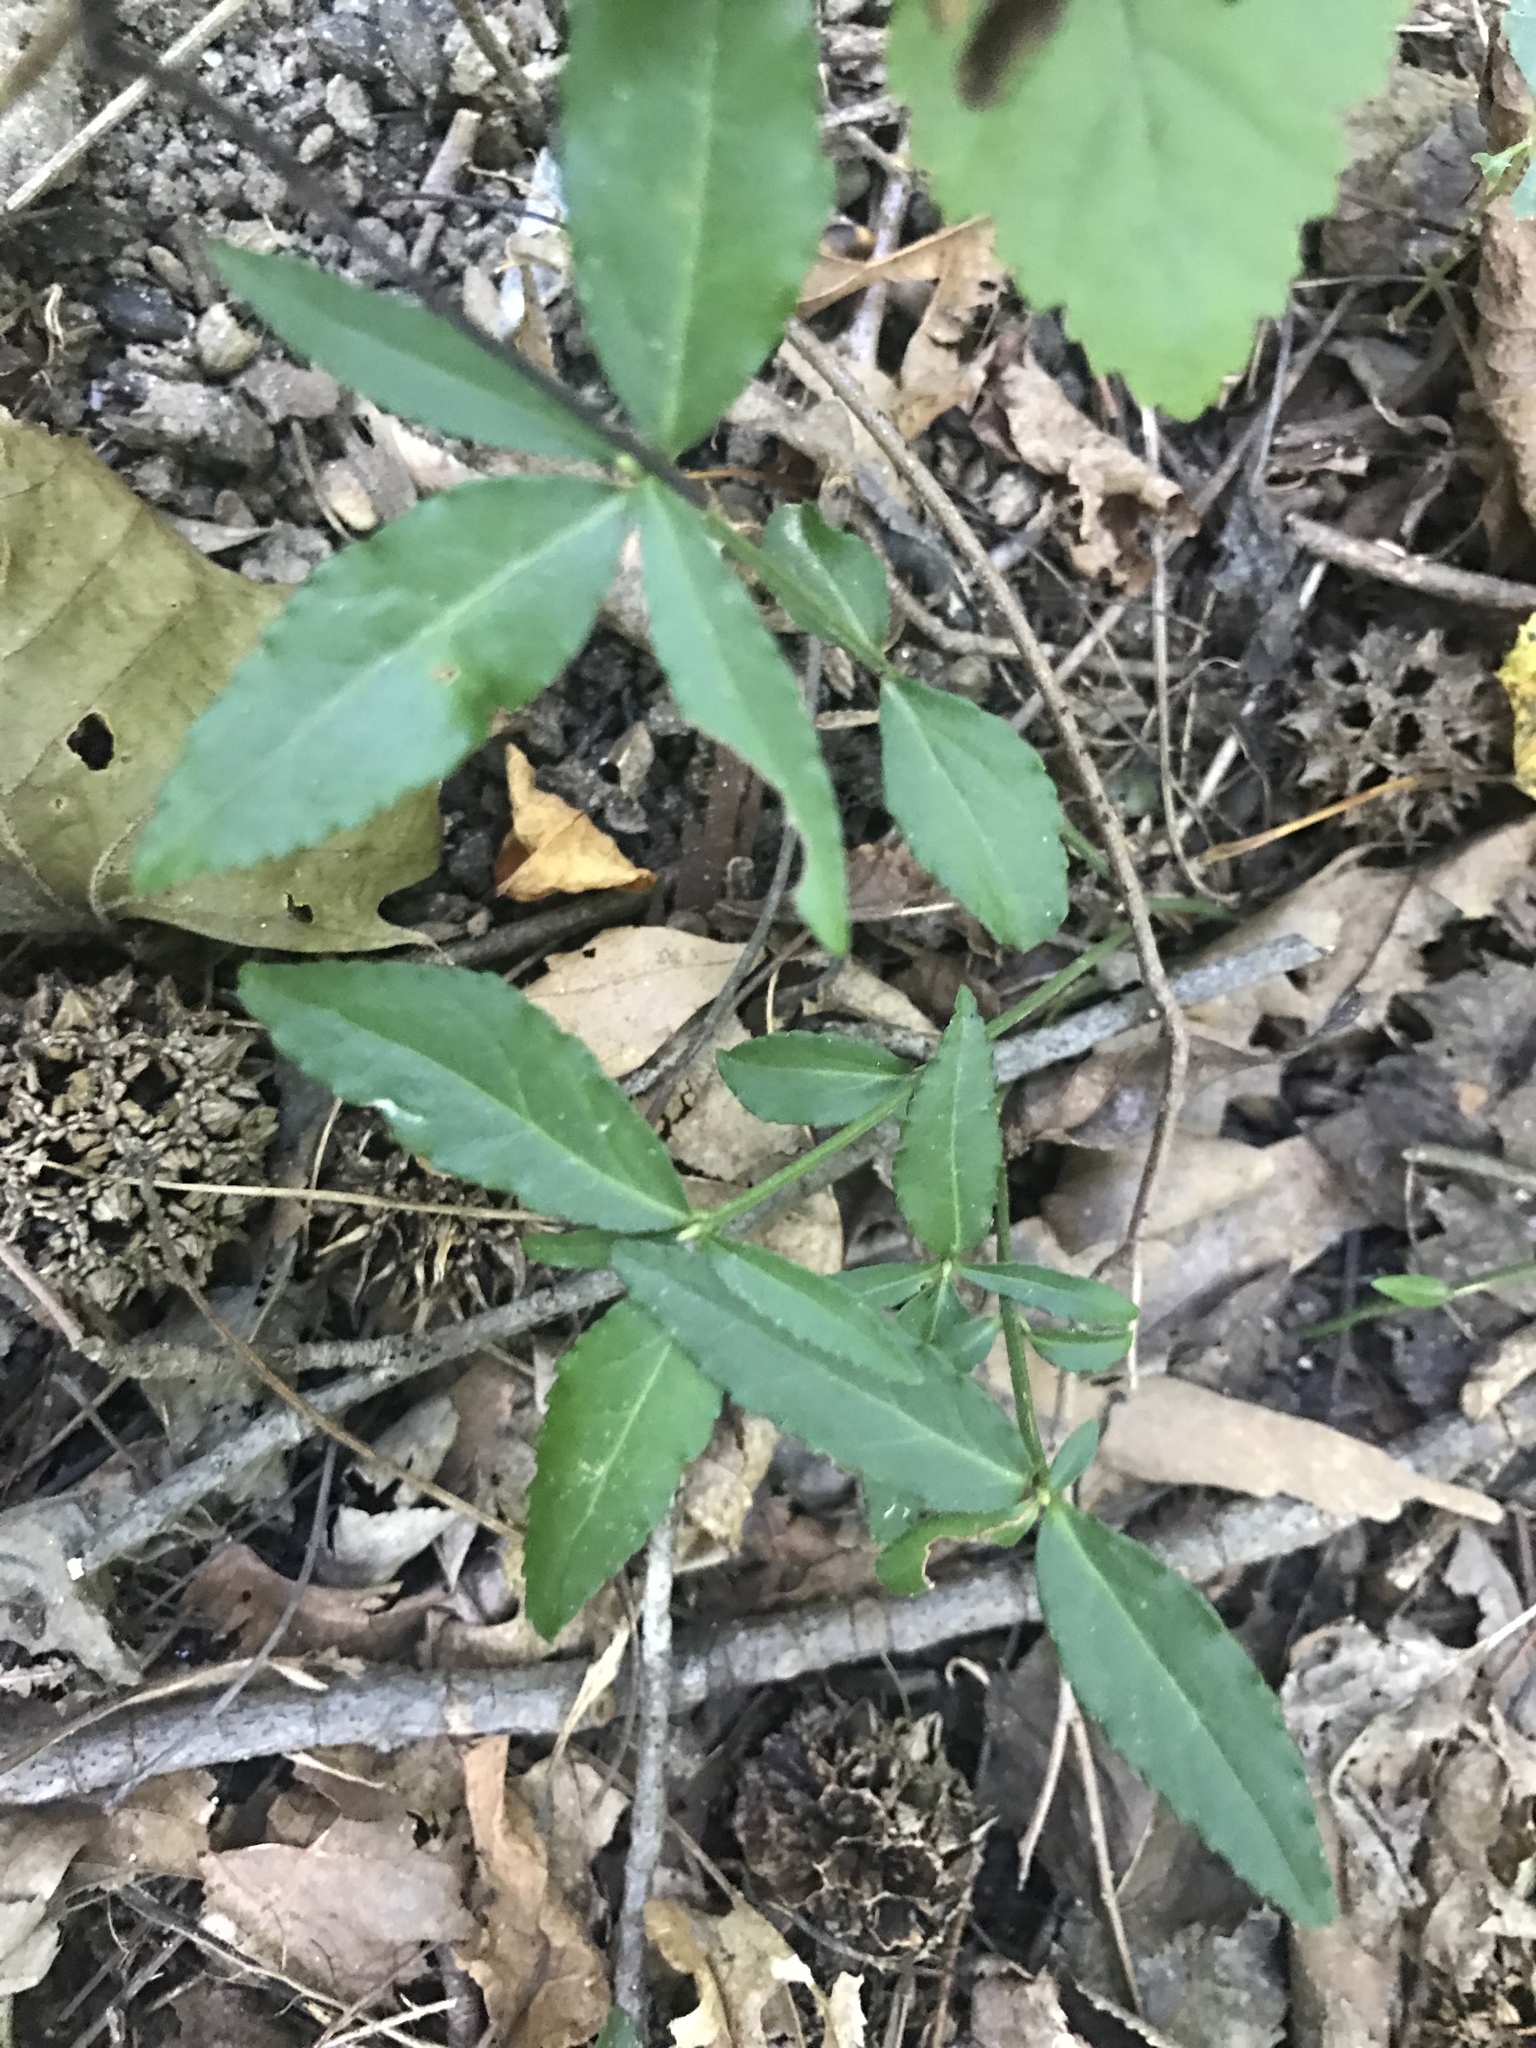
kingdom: Plantae
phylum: Tracheophyta
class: Magnoliopsida
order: Celastrales
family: Celastraceae
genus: Euonymus
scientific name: Euonymus americanus
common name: Bursting-heart
